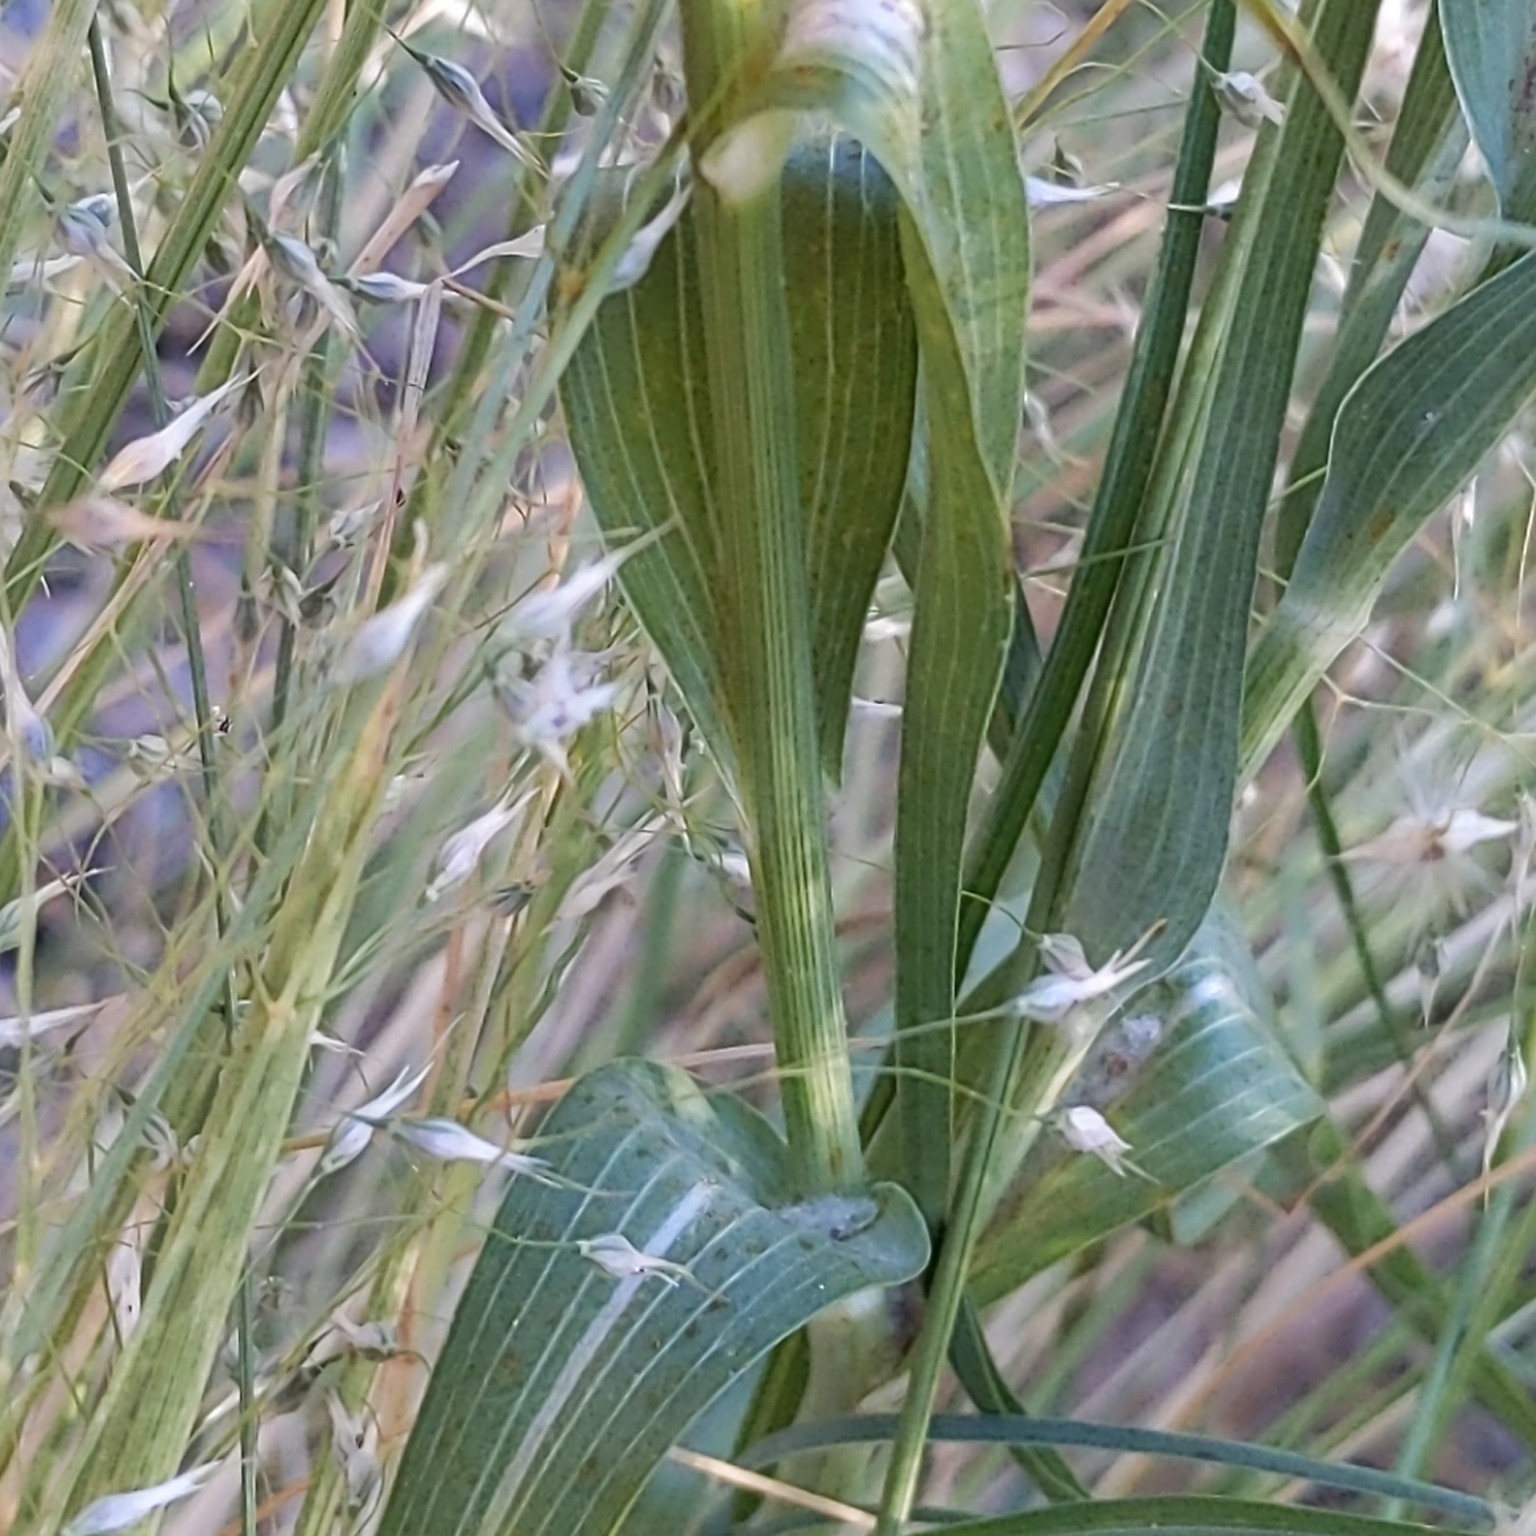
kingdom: Plantae
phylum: Tracheophyta
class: Magnoliopsida
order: Asterales
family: Asteraceae
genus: Tragopogon
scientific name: Tragopogon dubius
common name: Yellow salsify
